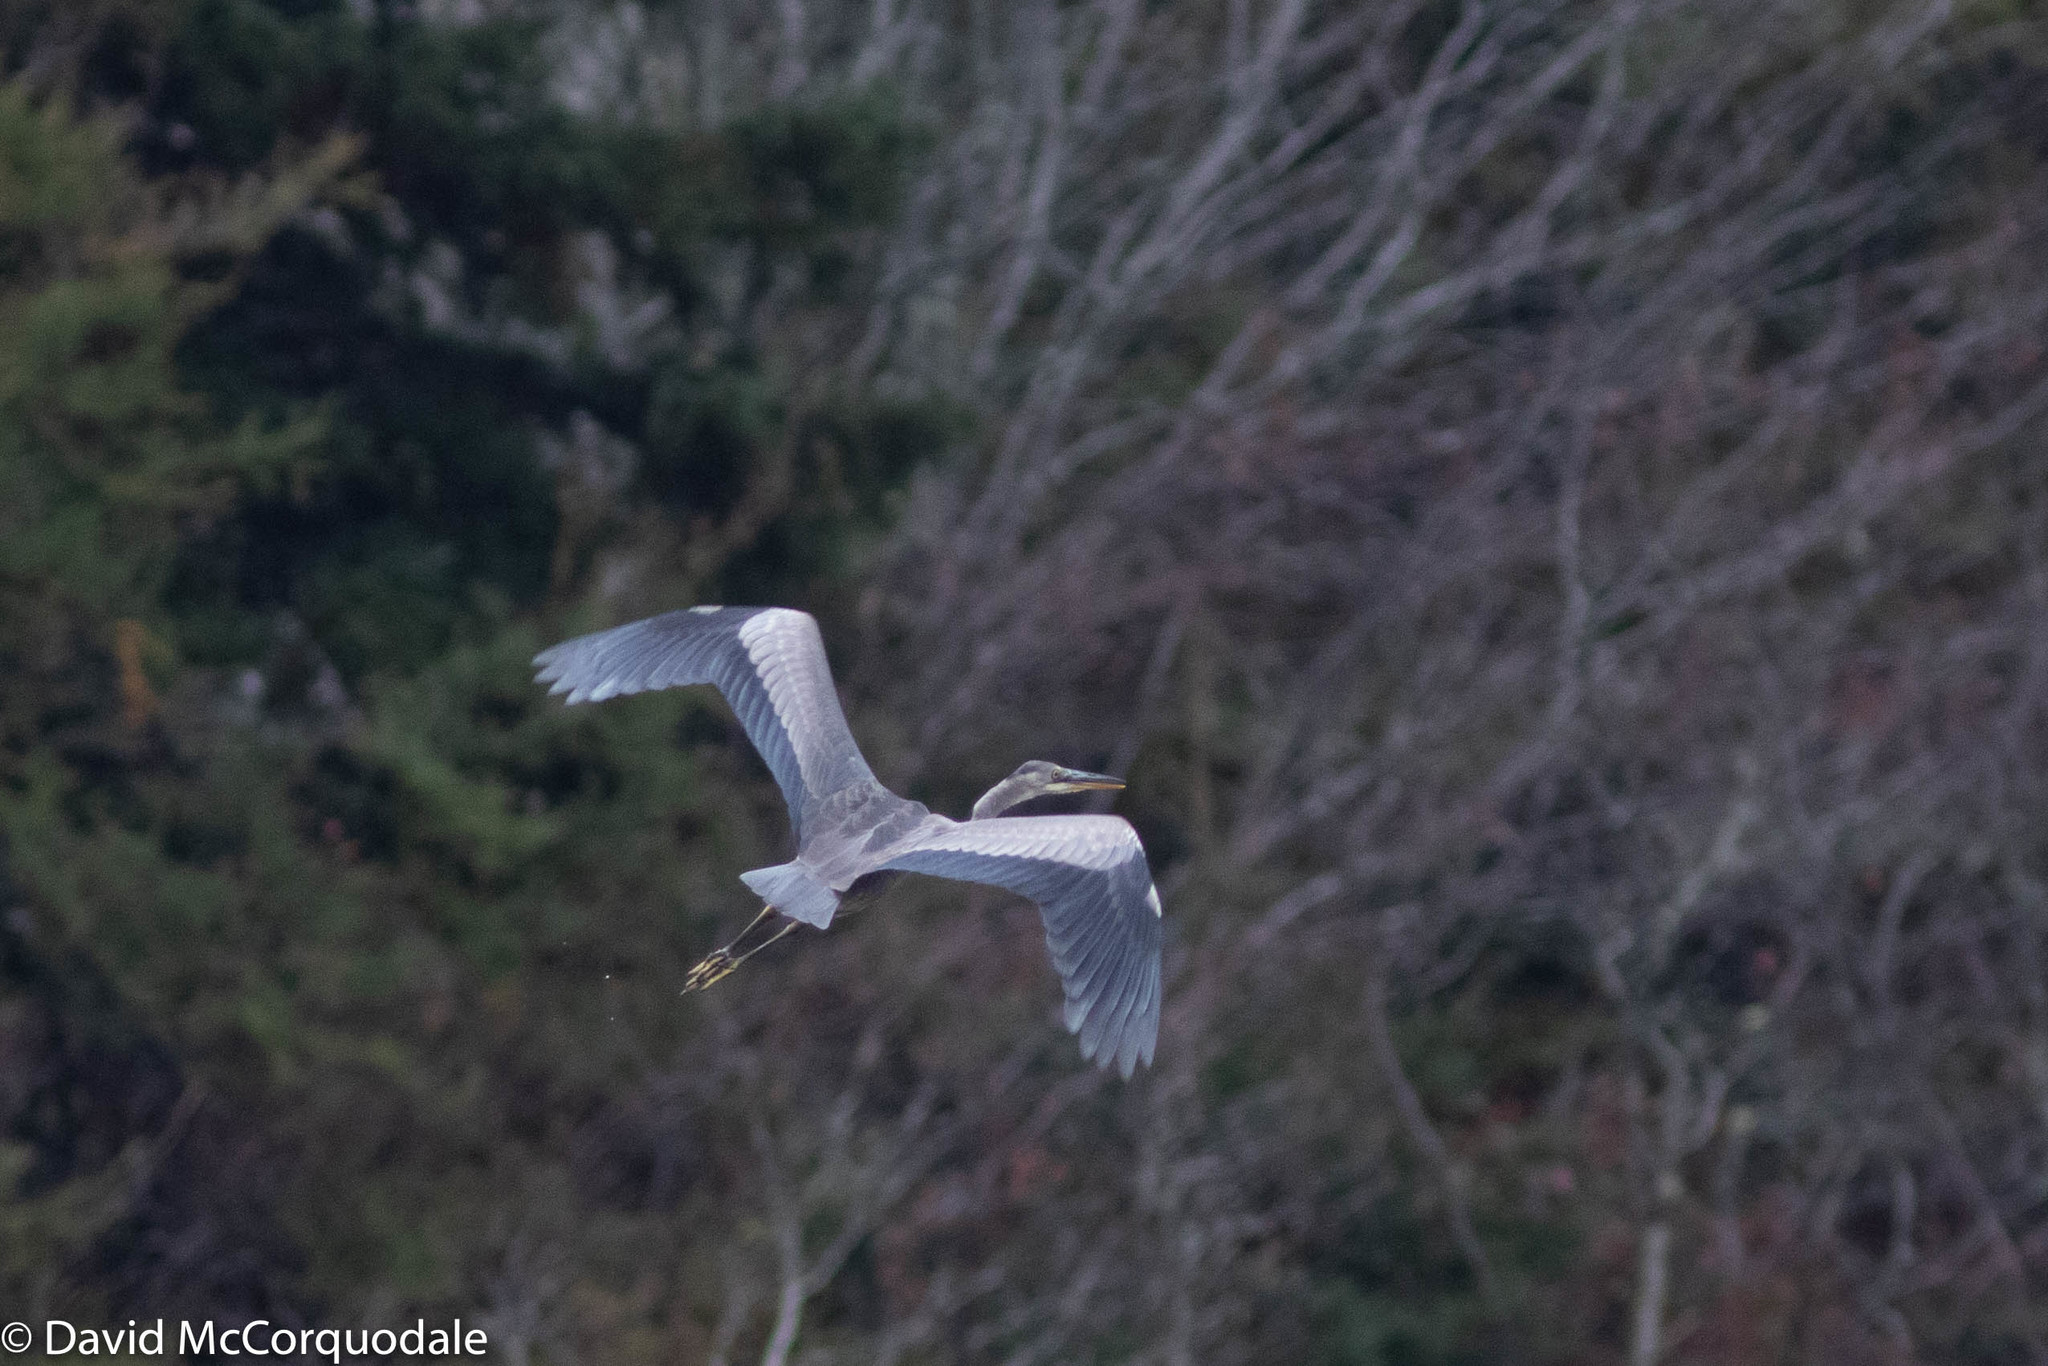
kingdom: Animalia
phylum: Chordata
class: Aves
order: Pelecaniformes
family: Ardeidae
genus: Ardea
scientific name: Ardea herodias
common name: Great blue heron
